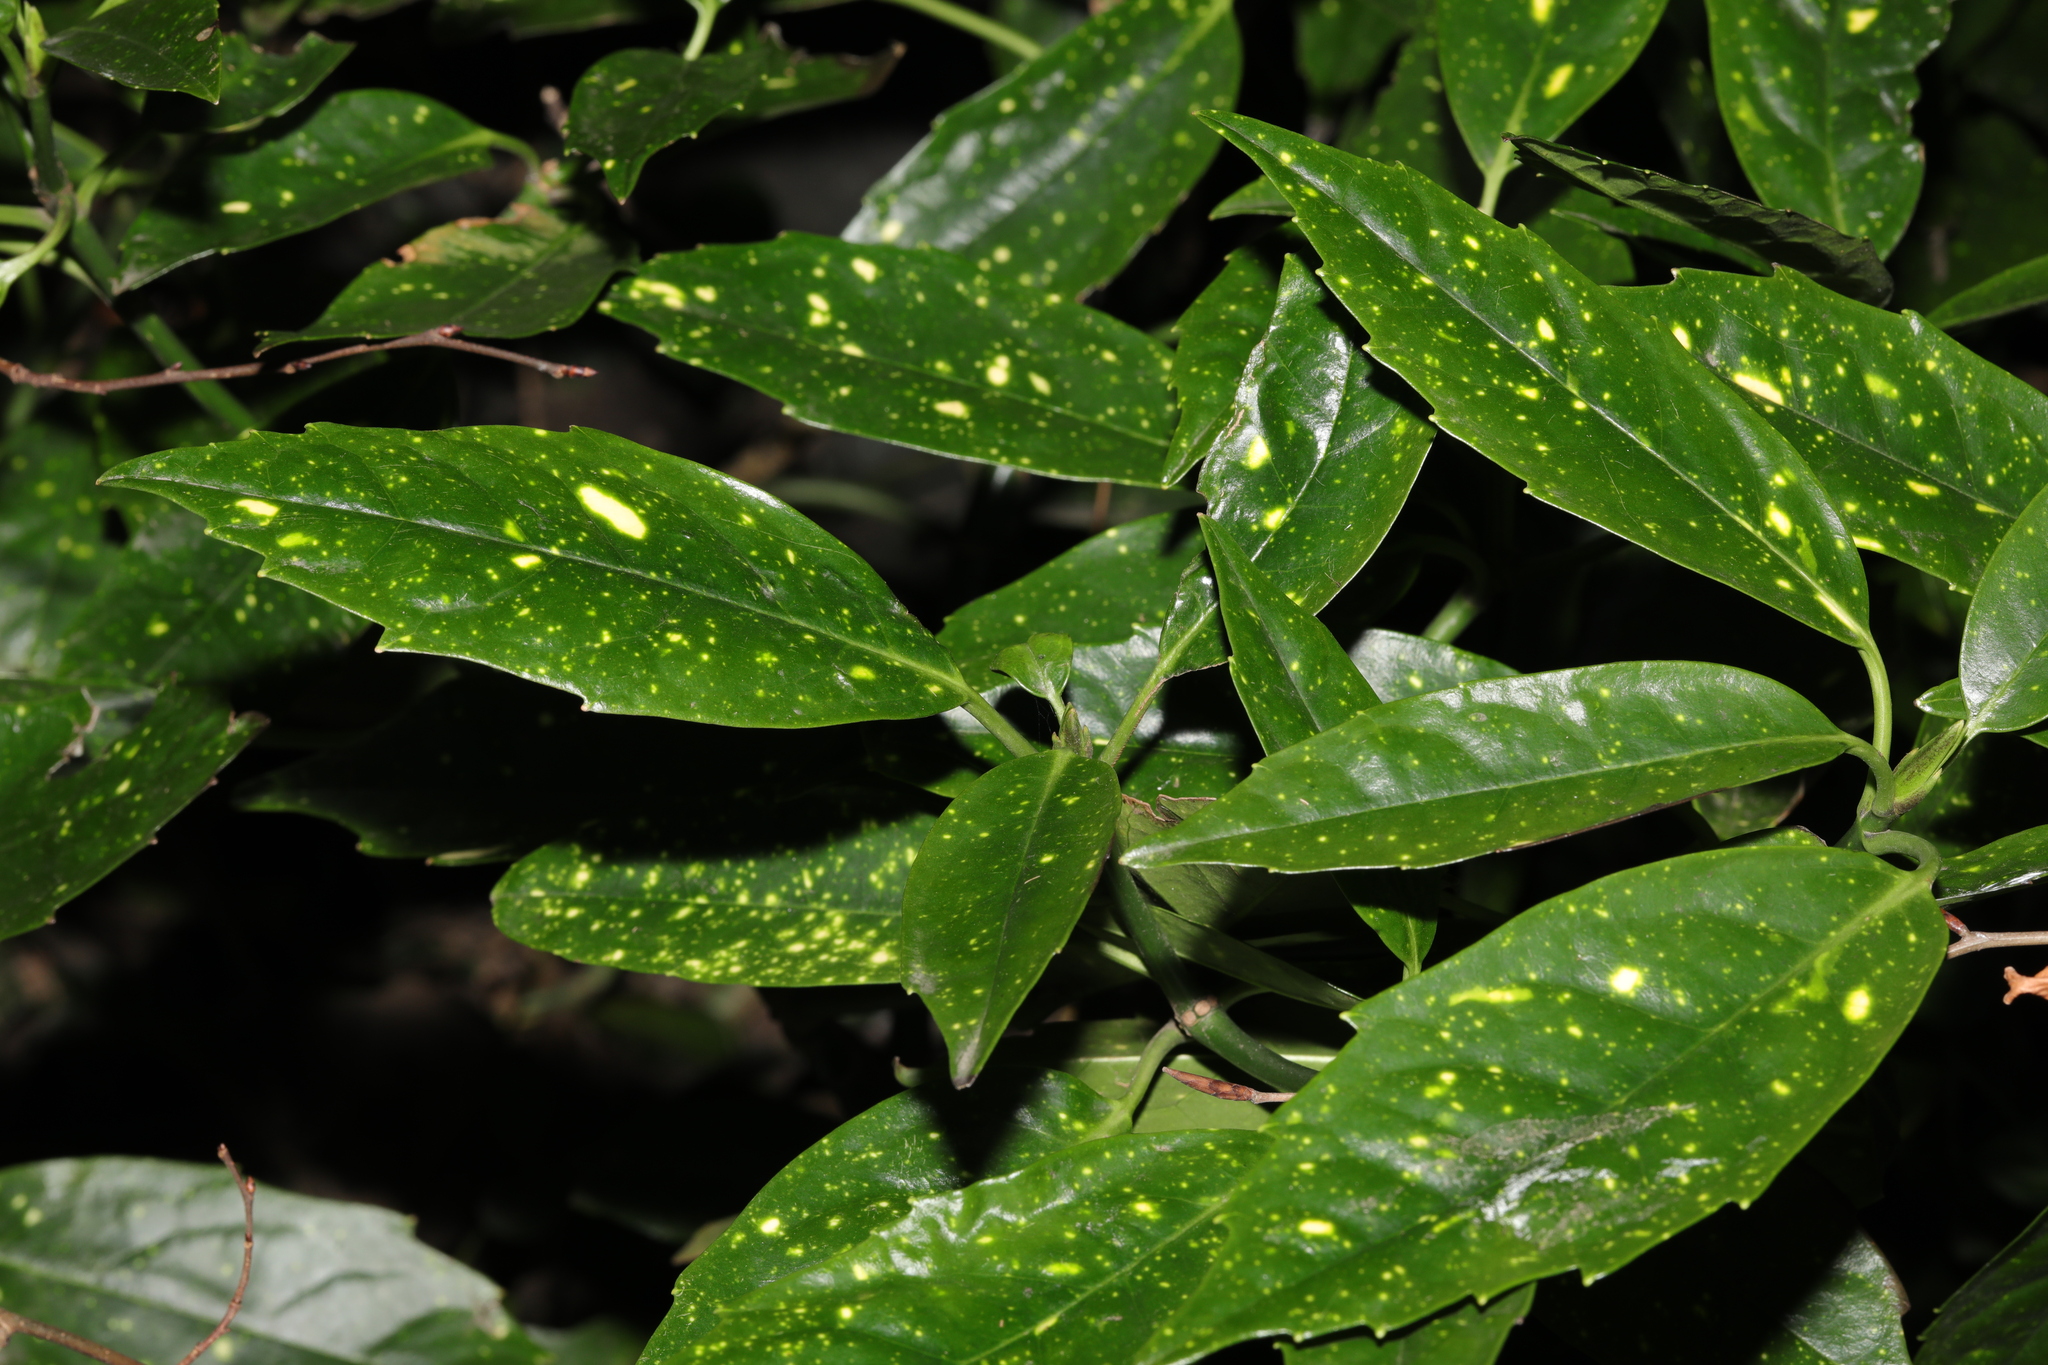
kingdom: Plantae
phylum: Tracheophyta
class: Magnoliopsida
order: Garryales
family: Garryaceae
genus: Aucuba
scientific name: Aucuba japonica
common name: Spotted-laurel
